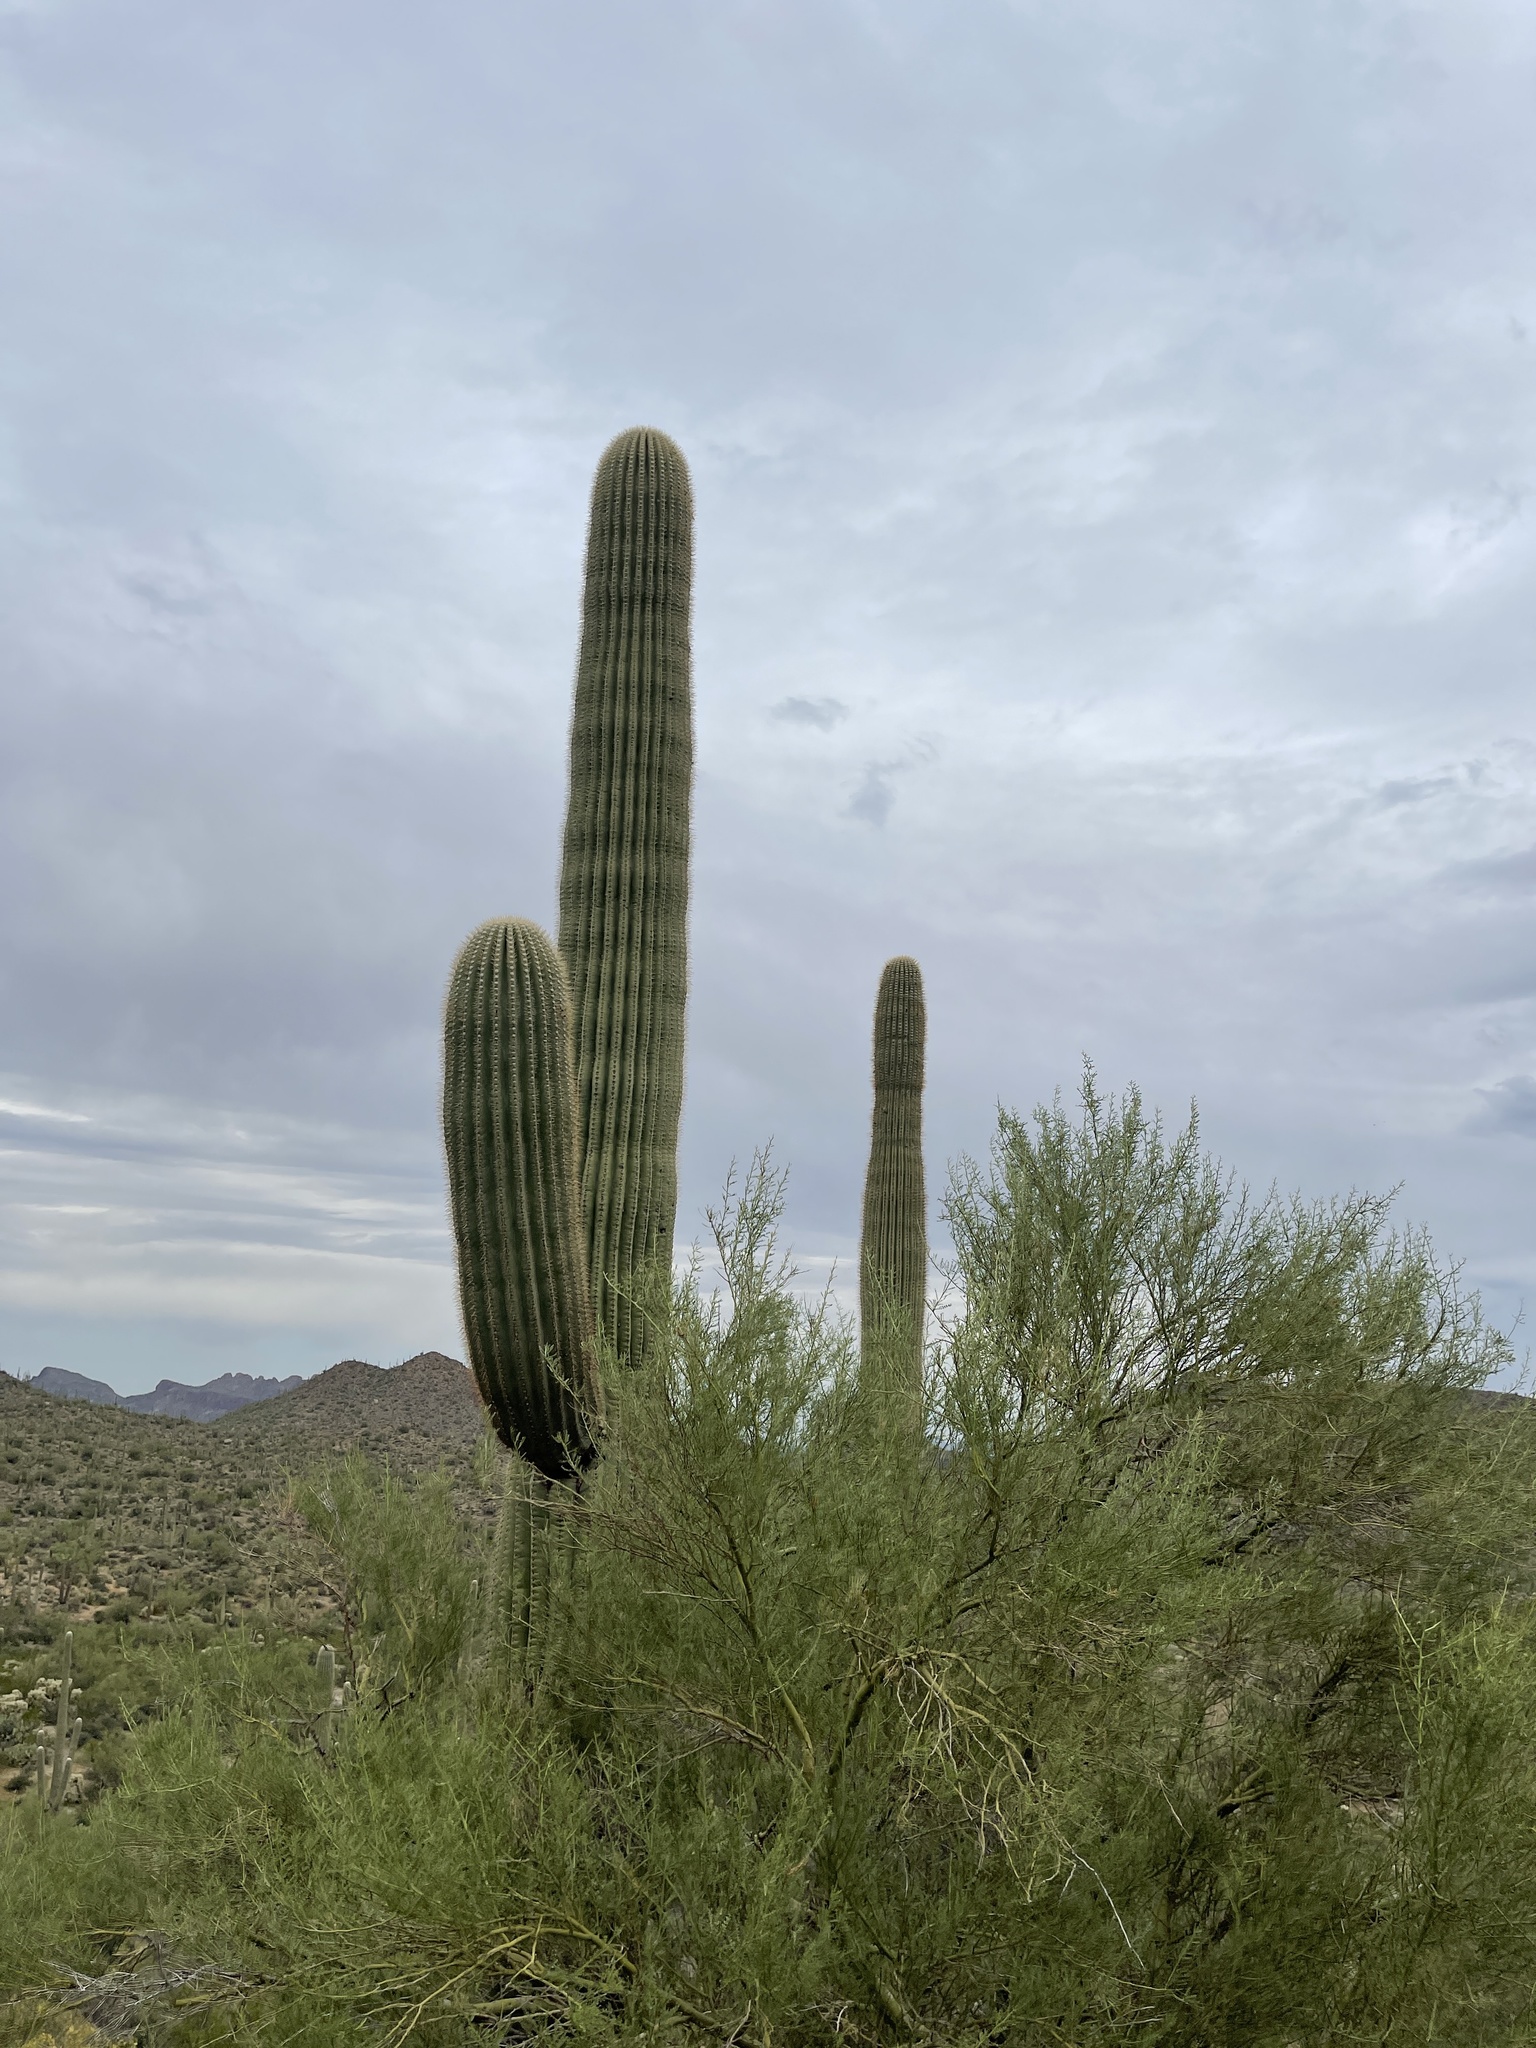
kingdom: Plantae
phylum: Tracheophyta
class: Magnoliopsida
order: Caryophyllales
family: Cactaceae
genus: Carnegiea
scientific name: Carnegiea gigantea
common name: Saguaro
